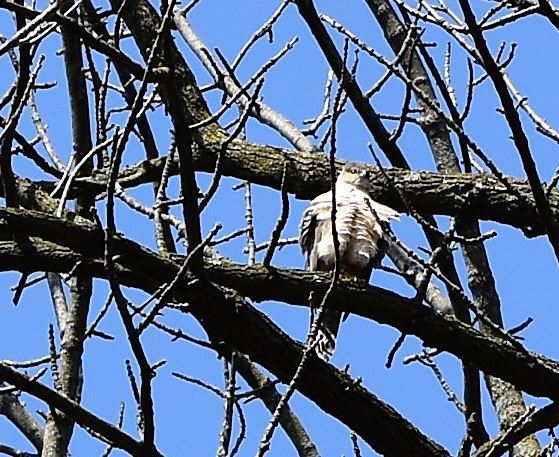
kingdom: Animalia
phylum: Chordata
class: Aves
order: Accipitriformes
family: Accipitridae
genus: Accipiter
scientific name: Accipiter cooperii
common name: Cooper's hawk
